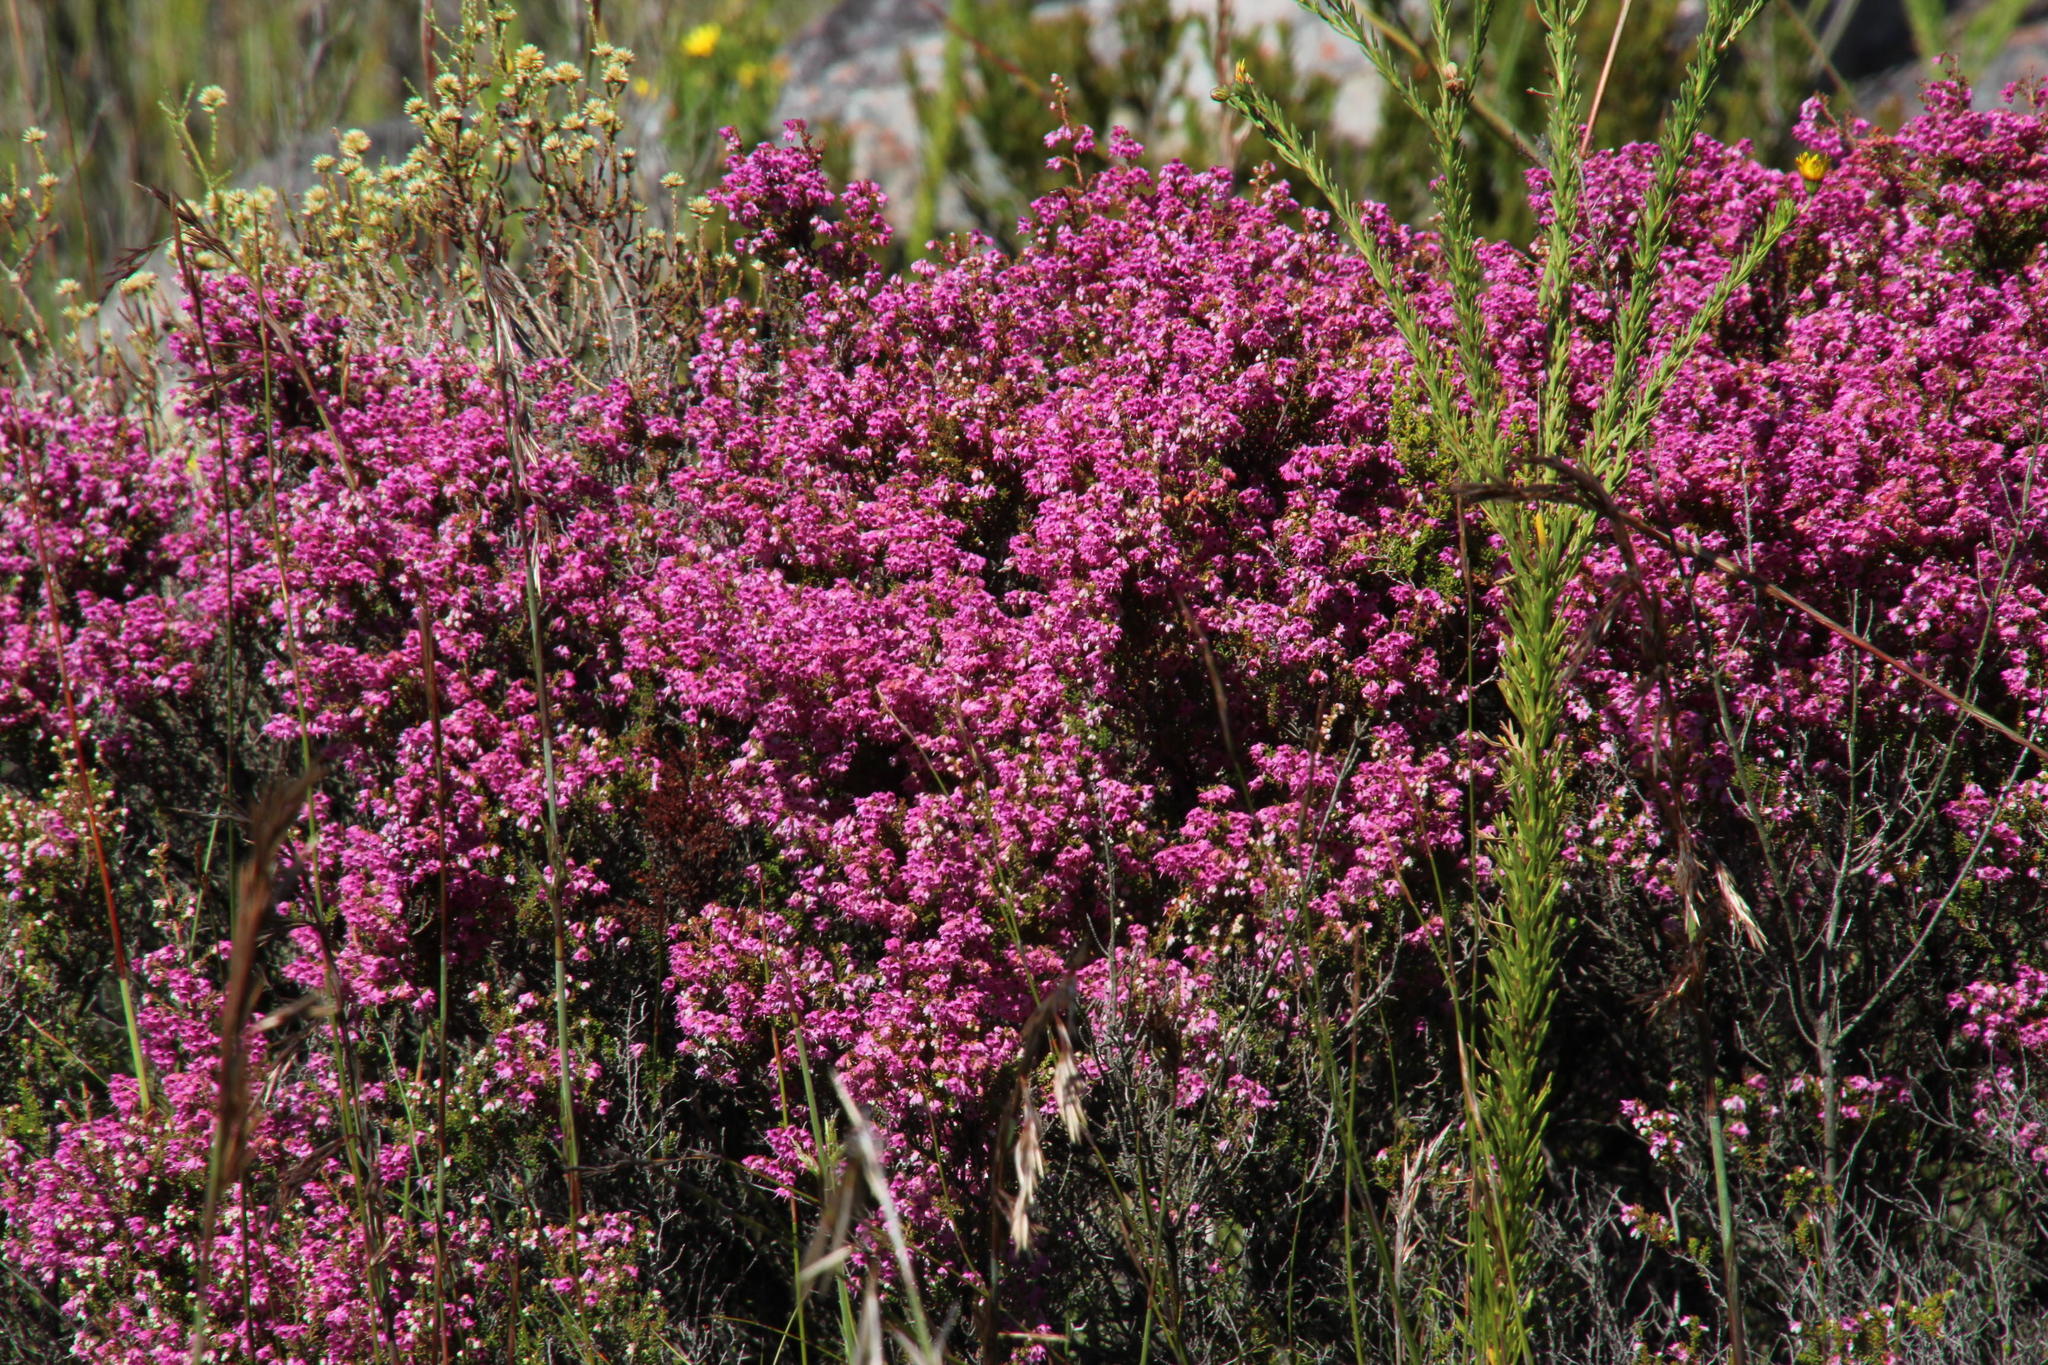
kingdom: Plantae
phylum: Tracheophyta
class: Magnoliopsida
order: Ericales
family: Ericaceae
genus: Erica
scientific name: Erica melanthera
